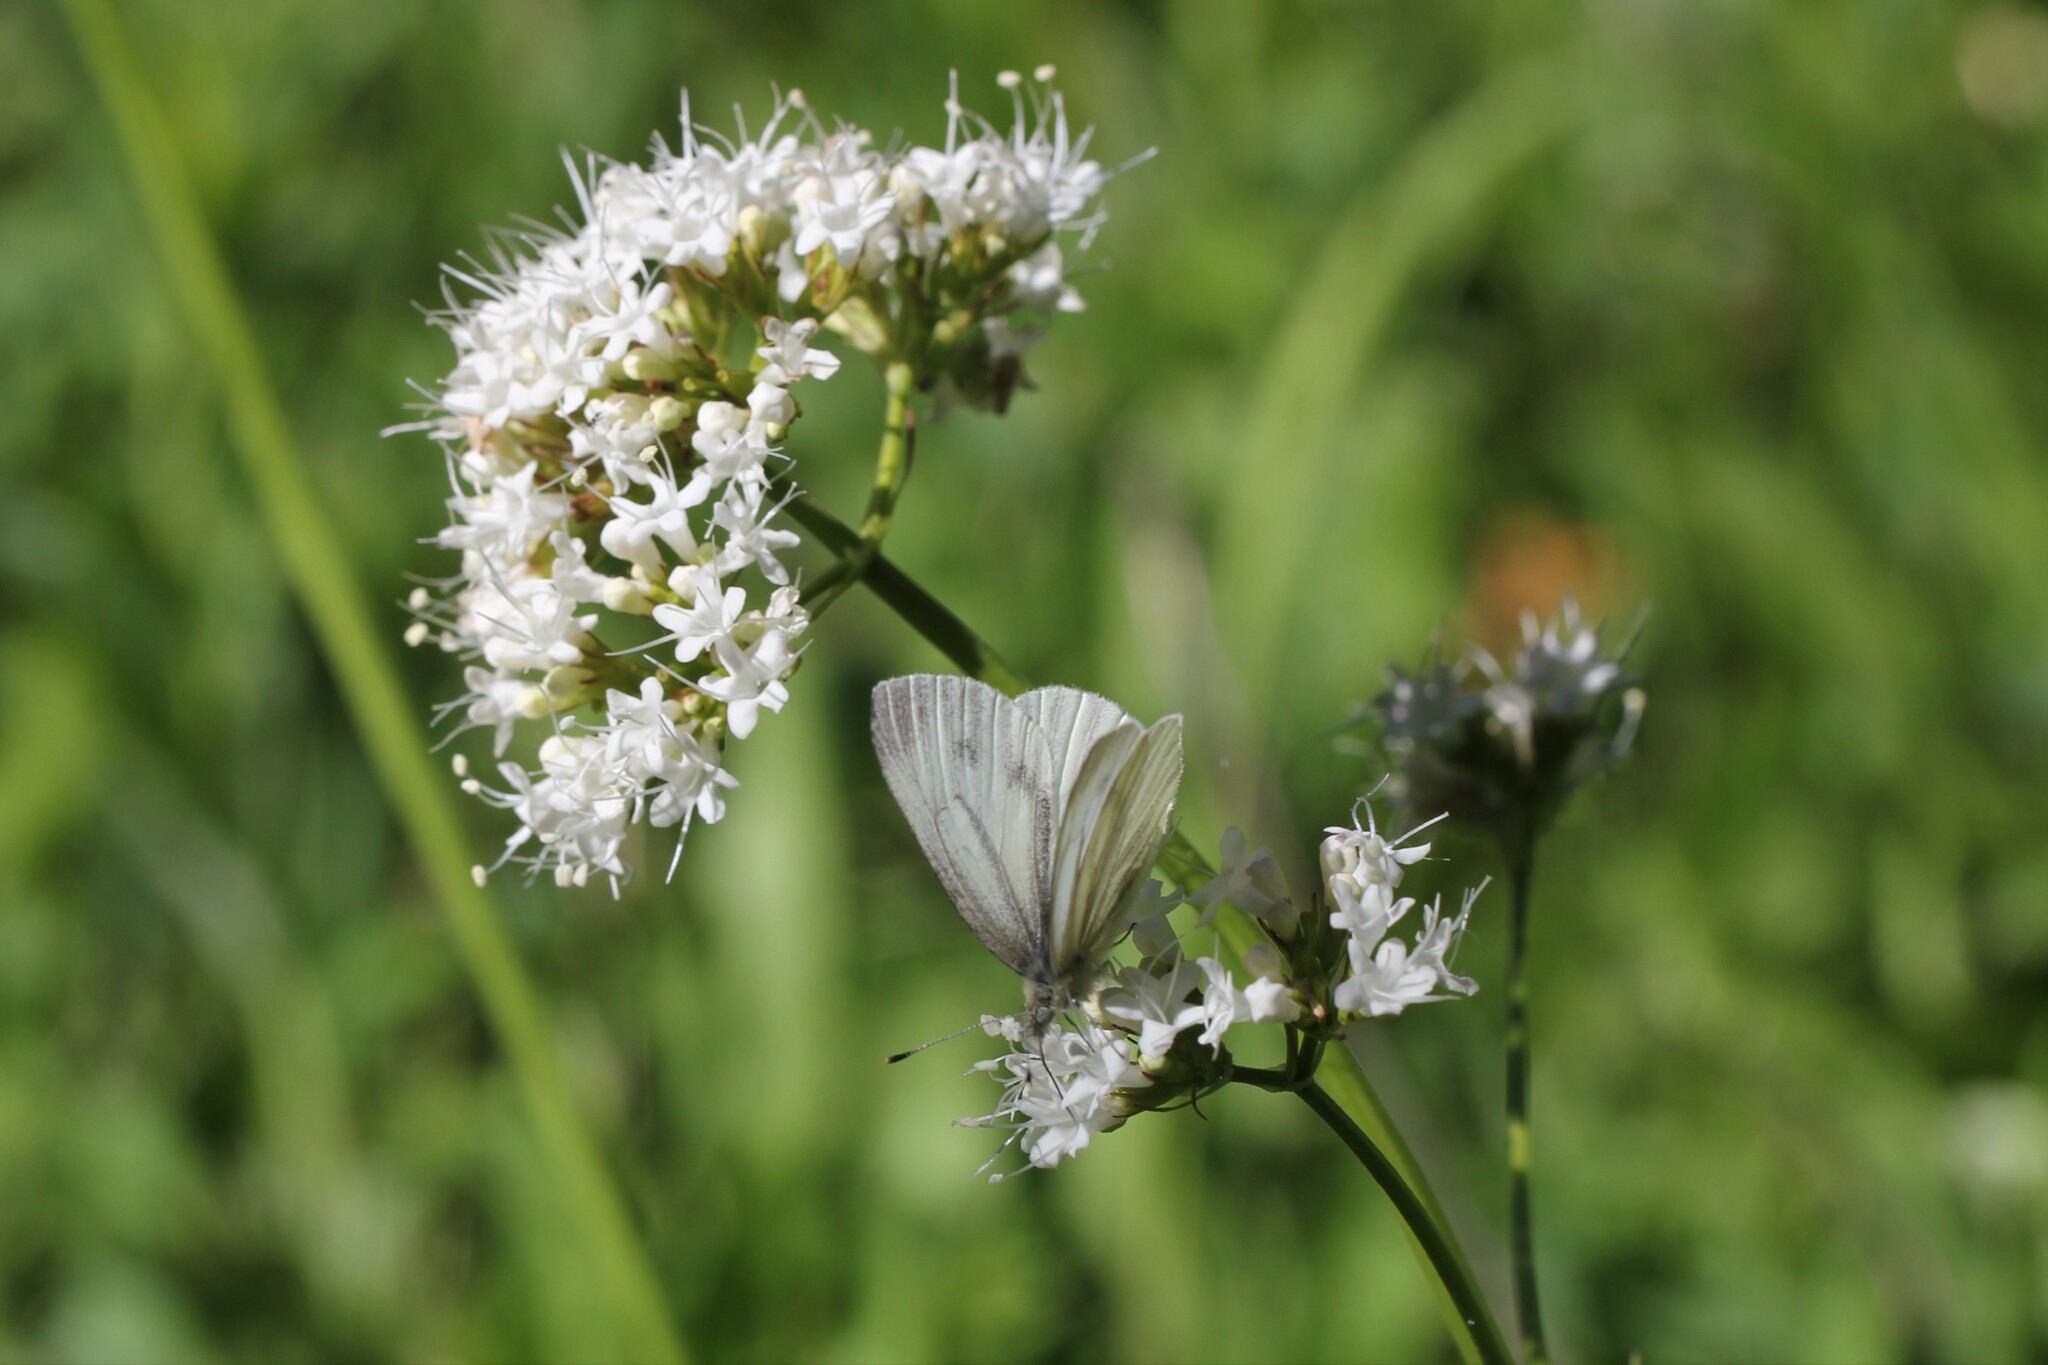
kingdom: Animalia
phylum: Arthropoda
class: Insecta
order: Lepidoptera
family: Pieridae
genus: Pieris
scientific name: Pieris marginalis
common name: Margined white
